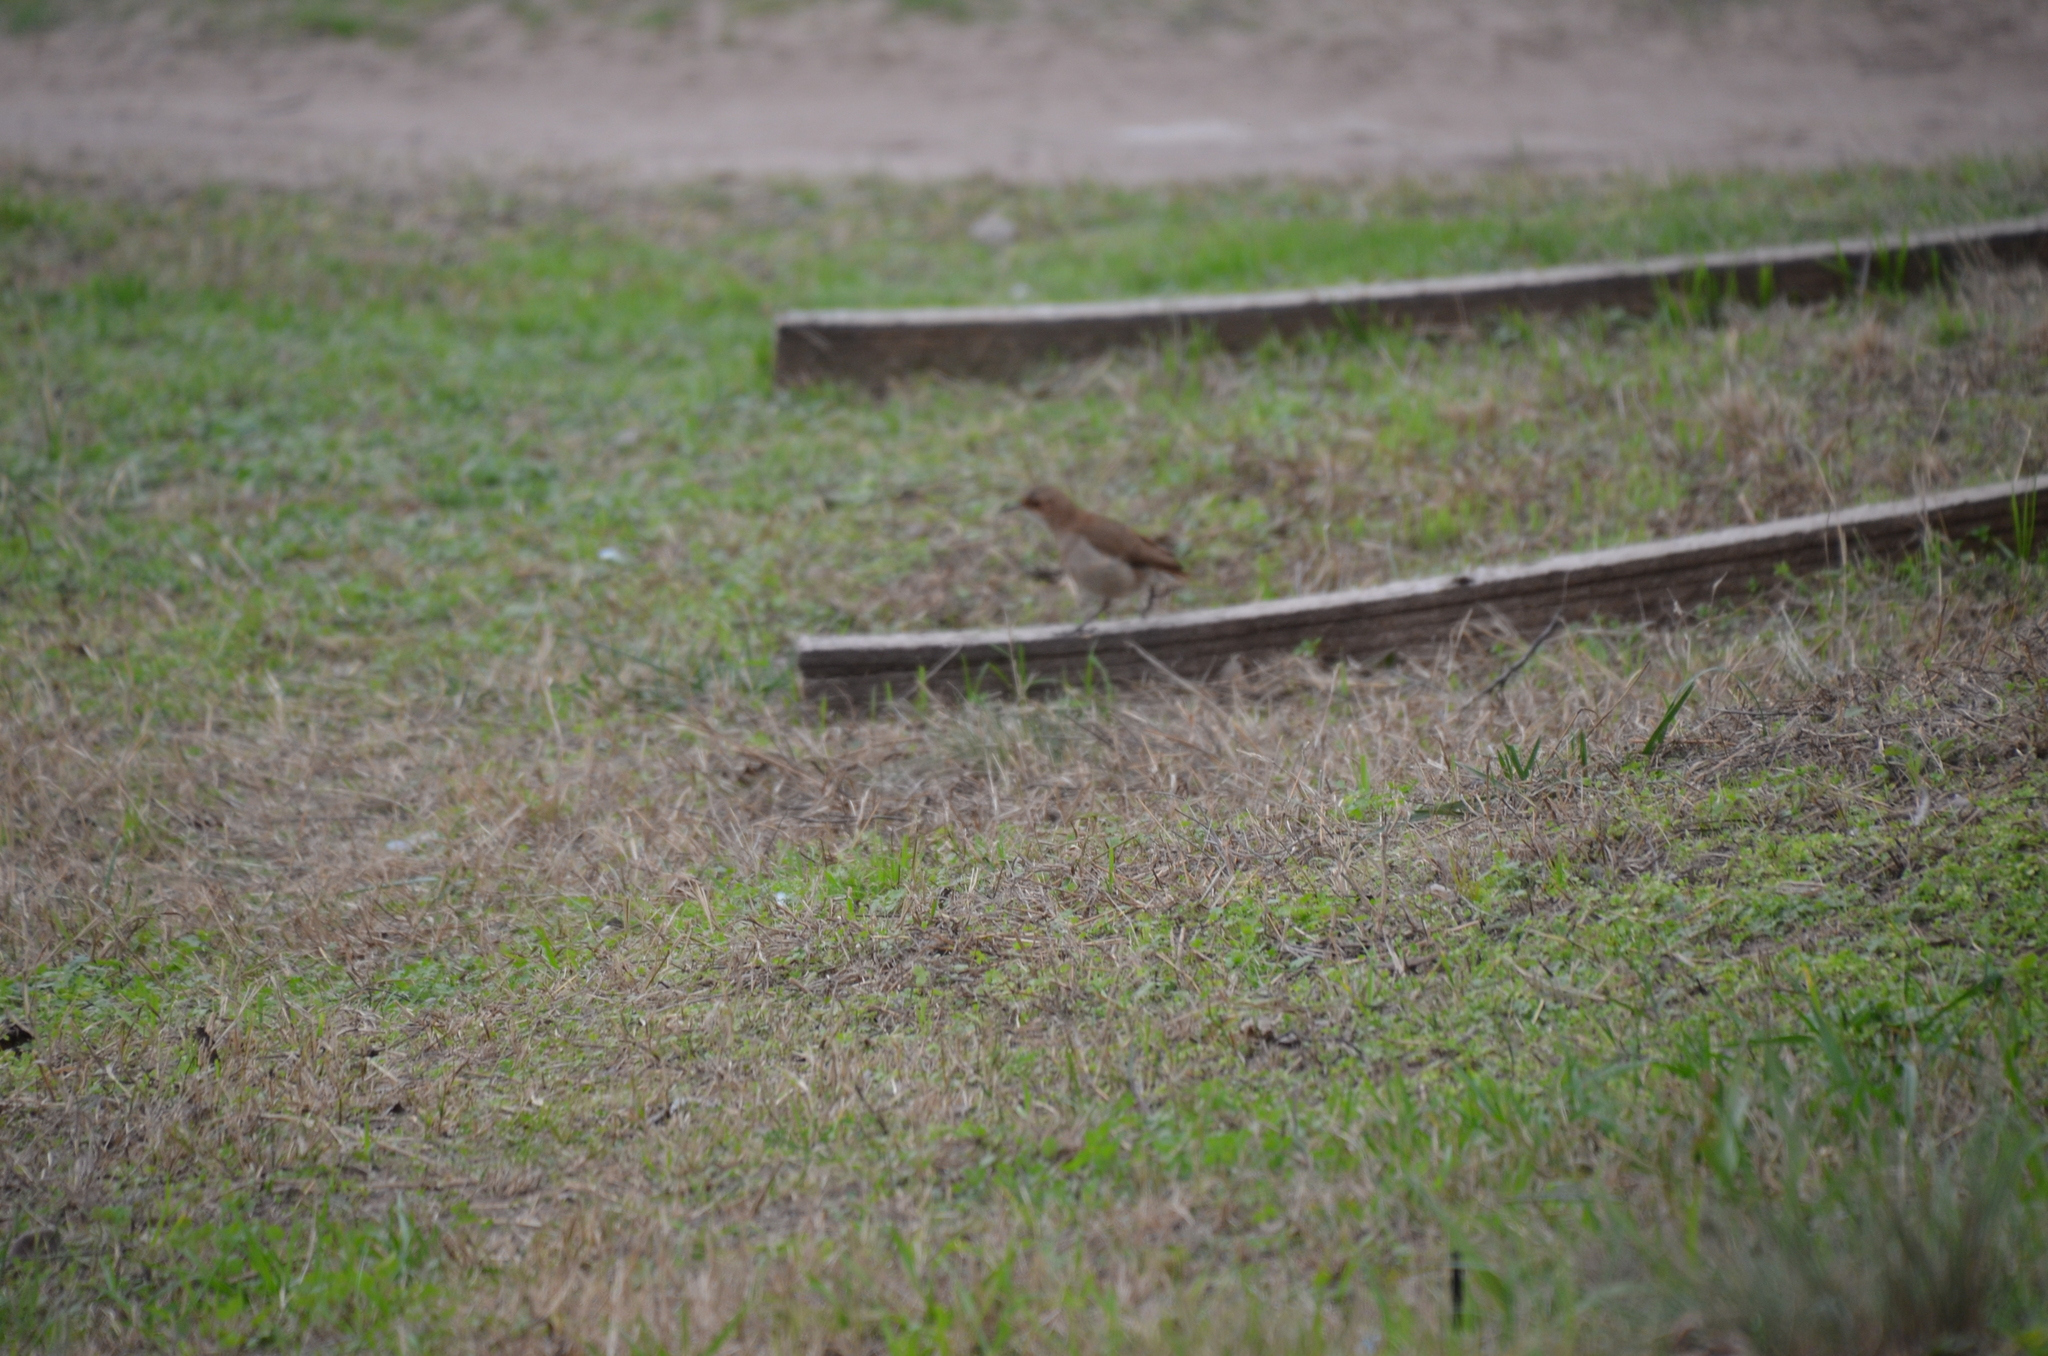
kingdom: Animalia
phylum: Chordata
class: Aves
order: Passeriformes
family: Furnariidae
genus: Furnarius
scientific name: Furnarius rufus
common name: Rufous hornero
